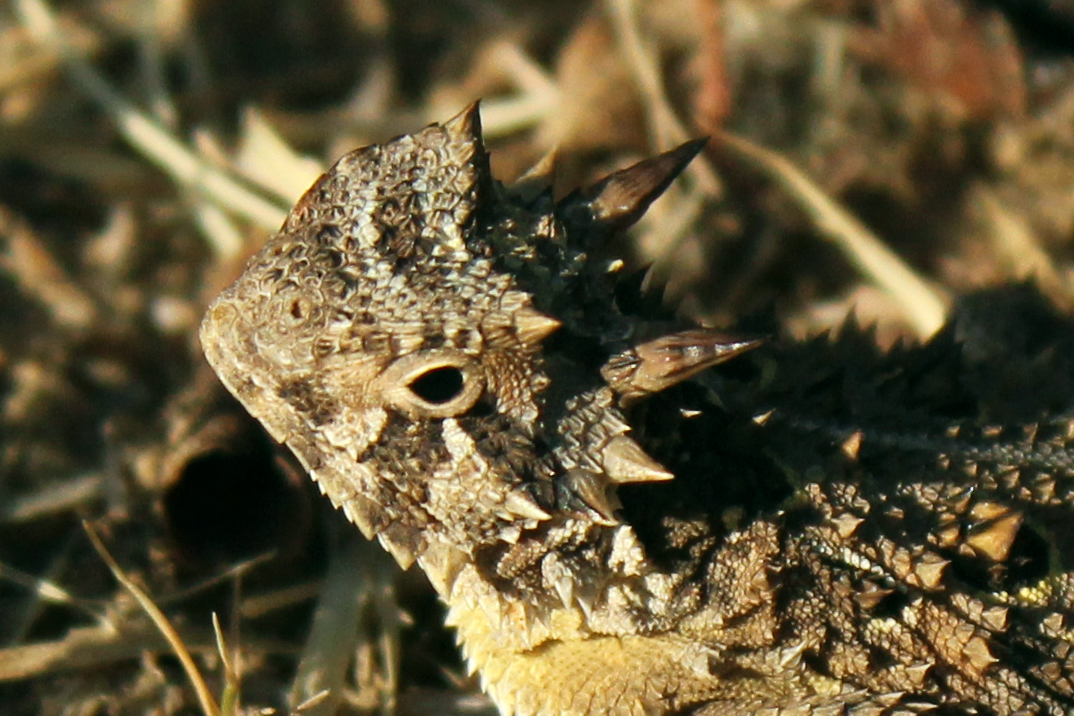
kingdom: Animalia
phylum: Chordata
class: Squamata
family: Phrynosomatidae
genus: Phrynosoma
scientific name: Phrynosoma cornutum
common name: Texas horned lizard
